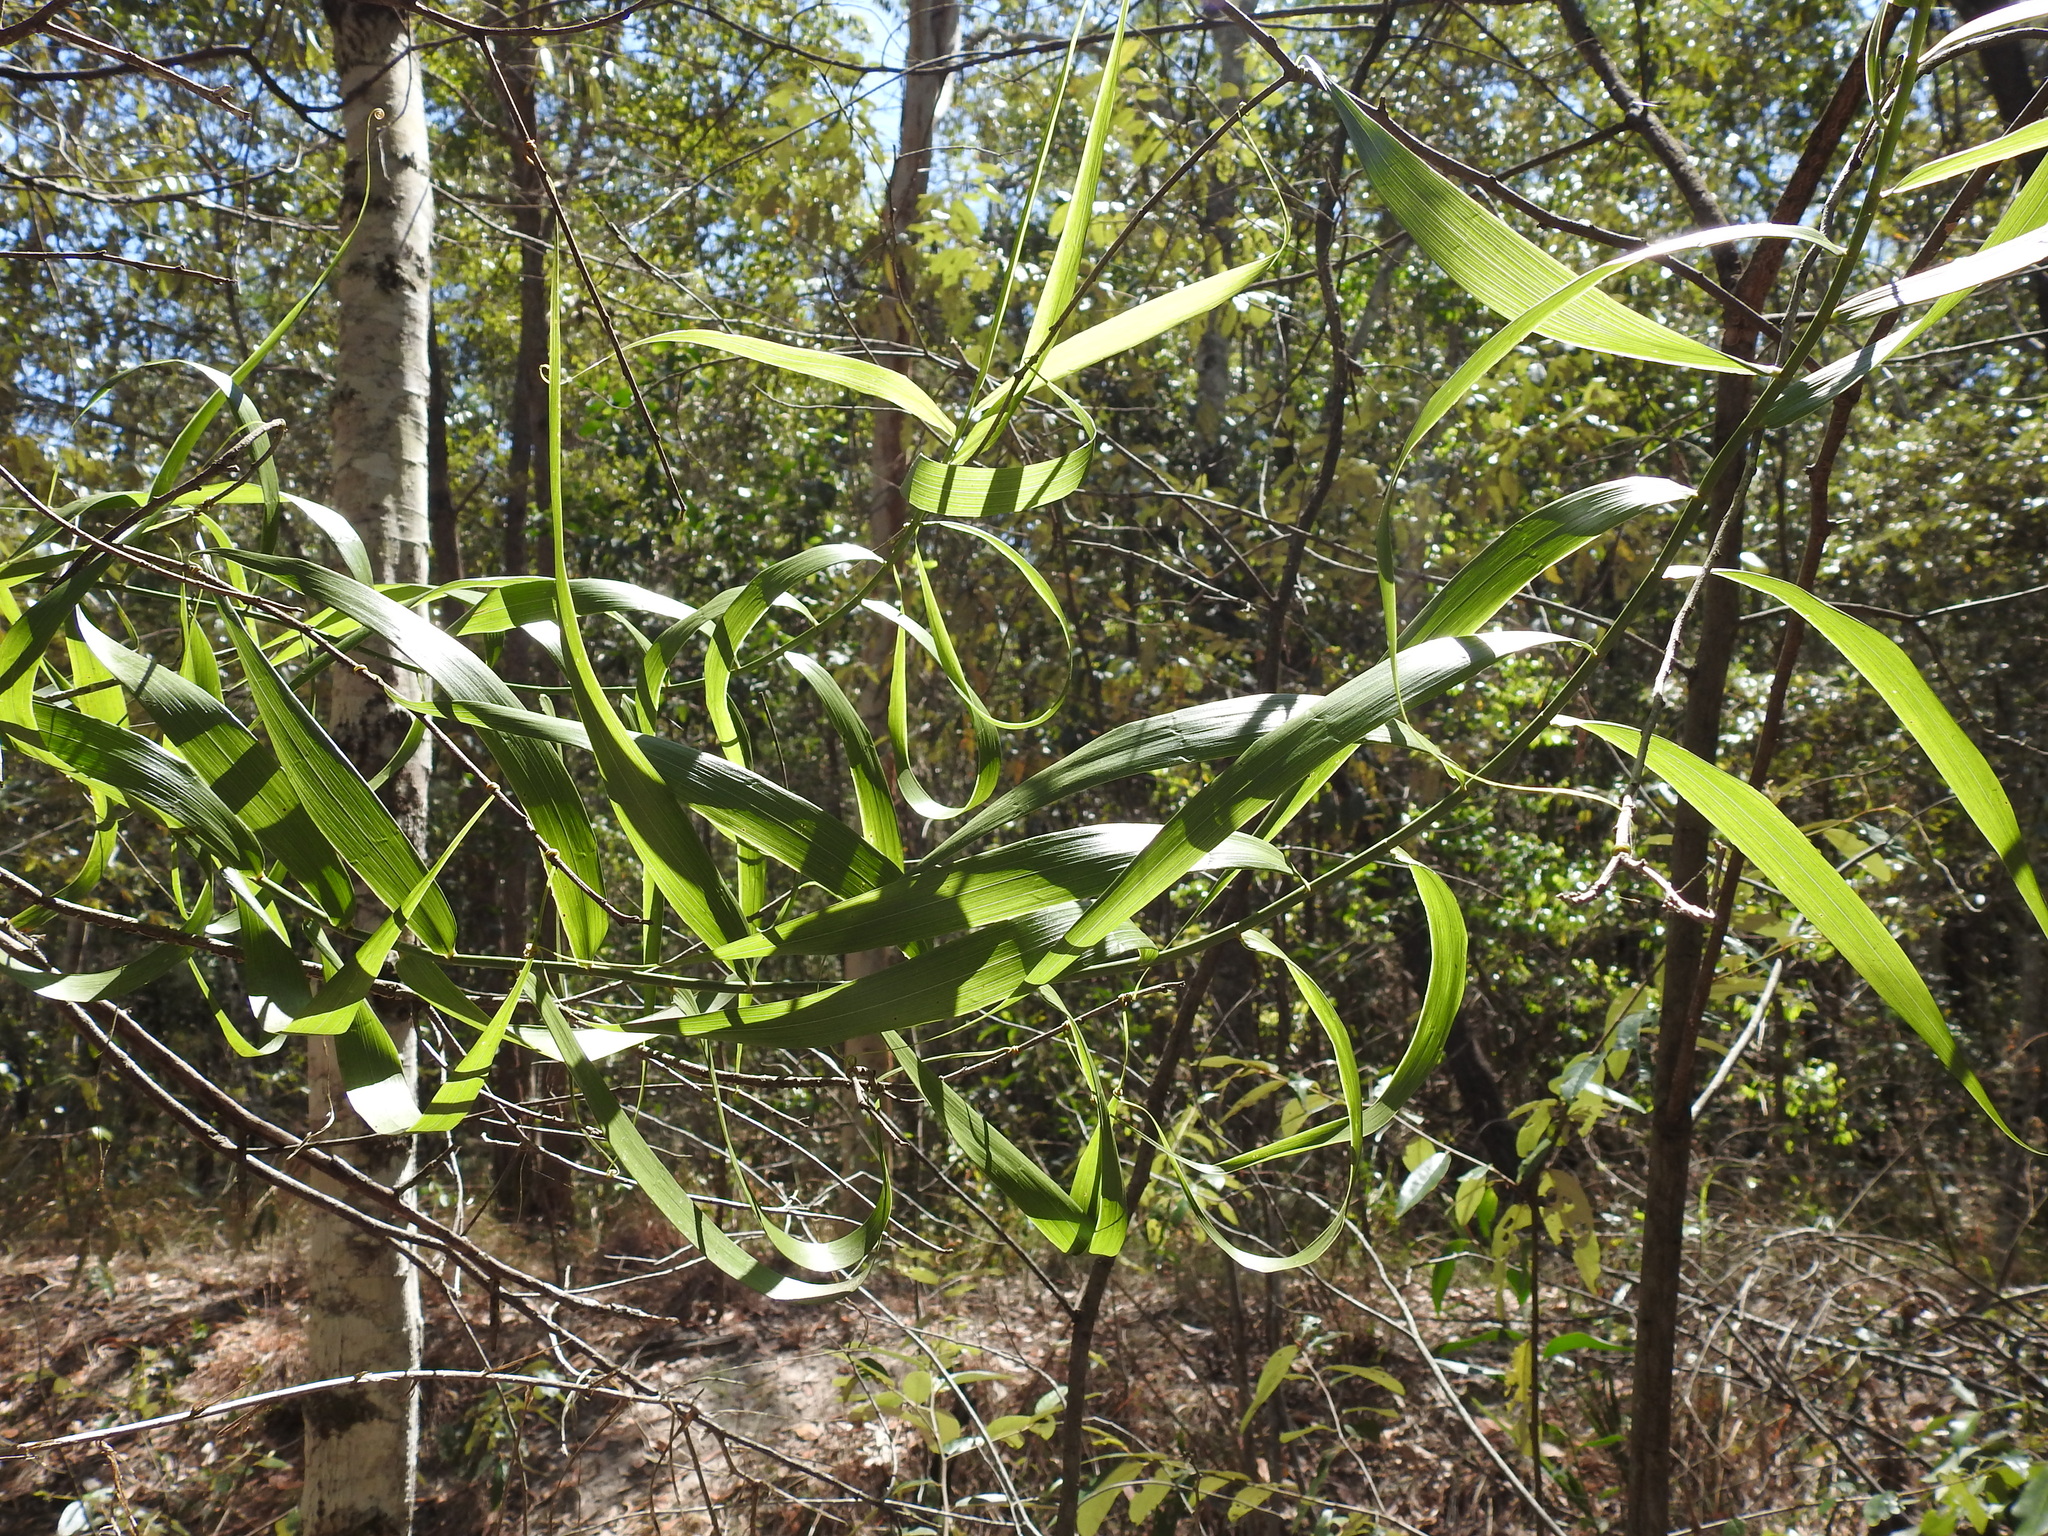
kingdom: Plantae
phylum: Tracheophyta
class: Liliopsida
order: Poales
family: Flagellariaceae
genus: Flagellaria
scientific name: Flagellaria indica
